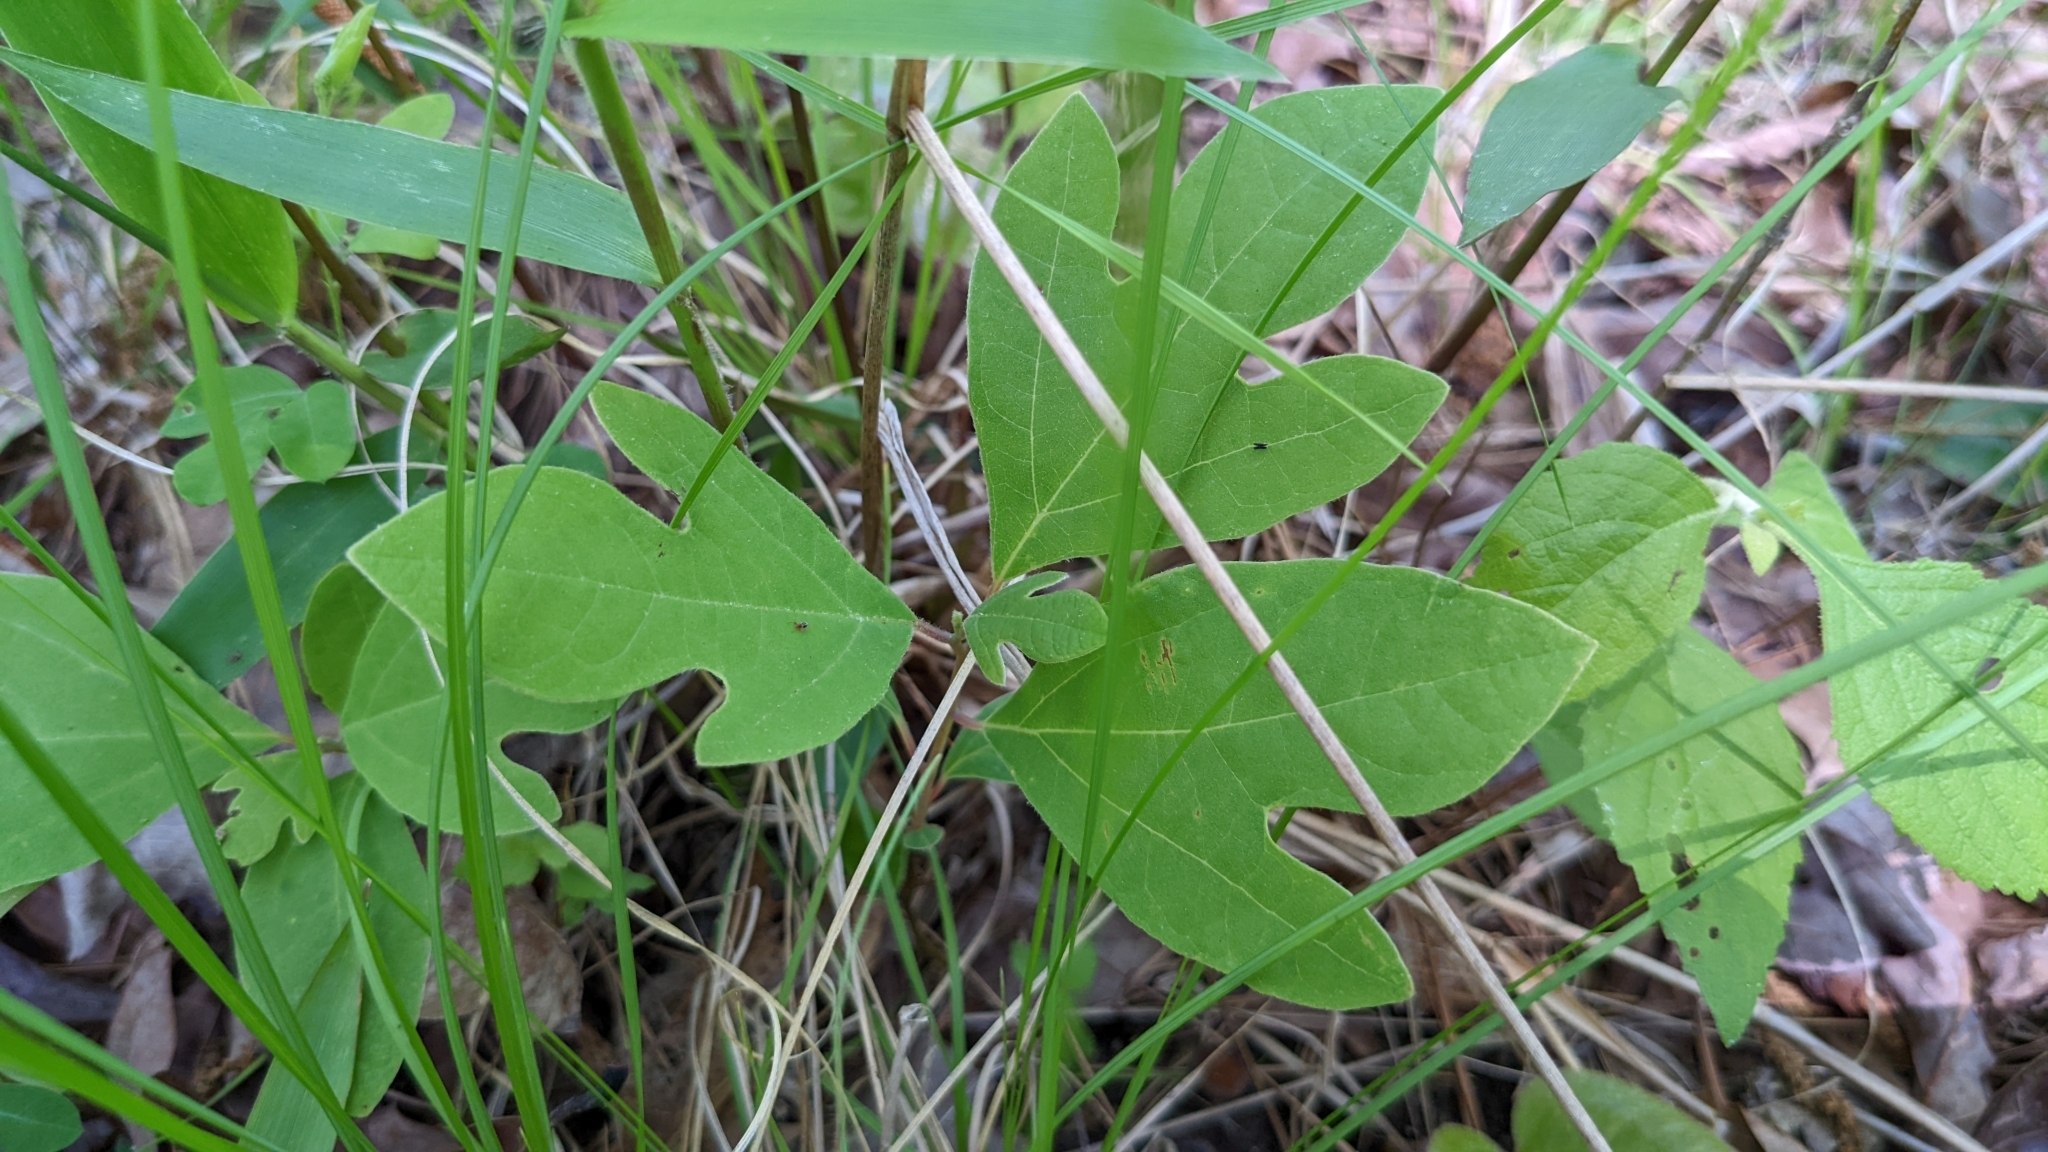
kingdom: Plantae
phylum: Tracheophyta
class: Magnoliopsida
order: Laurales
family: Lauraceae
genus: Sassafras
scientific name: Sassafras albidum
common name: Sassafras
